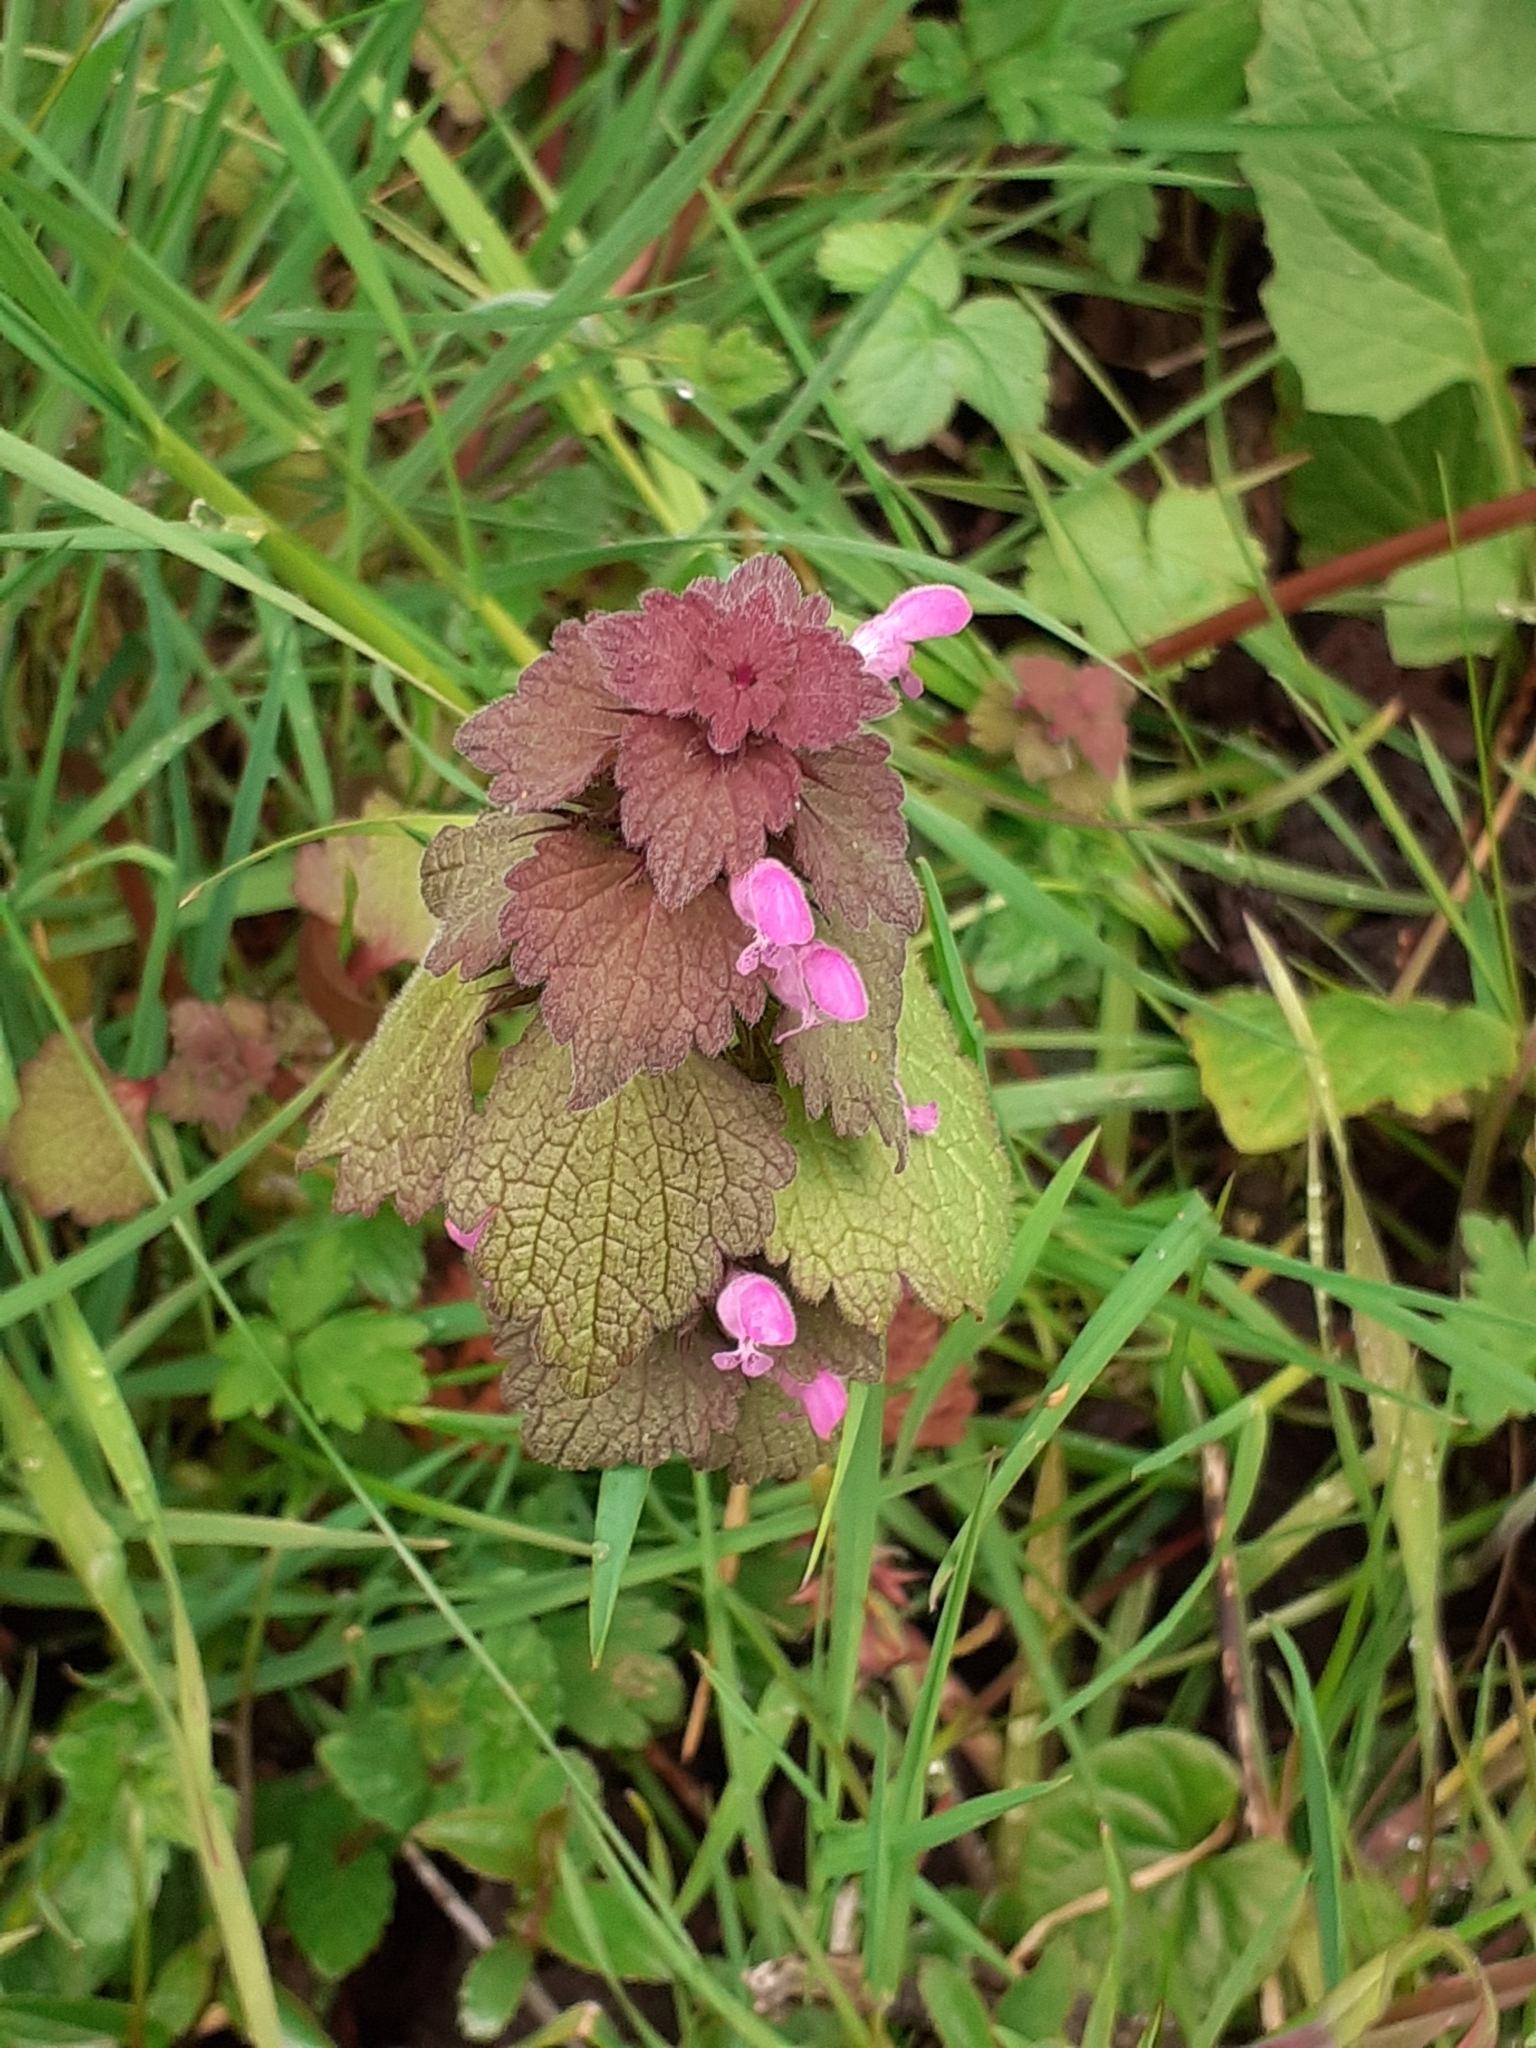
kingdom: Plantae
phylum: Tracheophyta
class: Magnoliopsida
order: Lamiales
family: Lamiaceae
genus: Lamium
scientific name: Lamium purpureum
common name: Red dead-nettle
